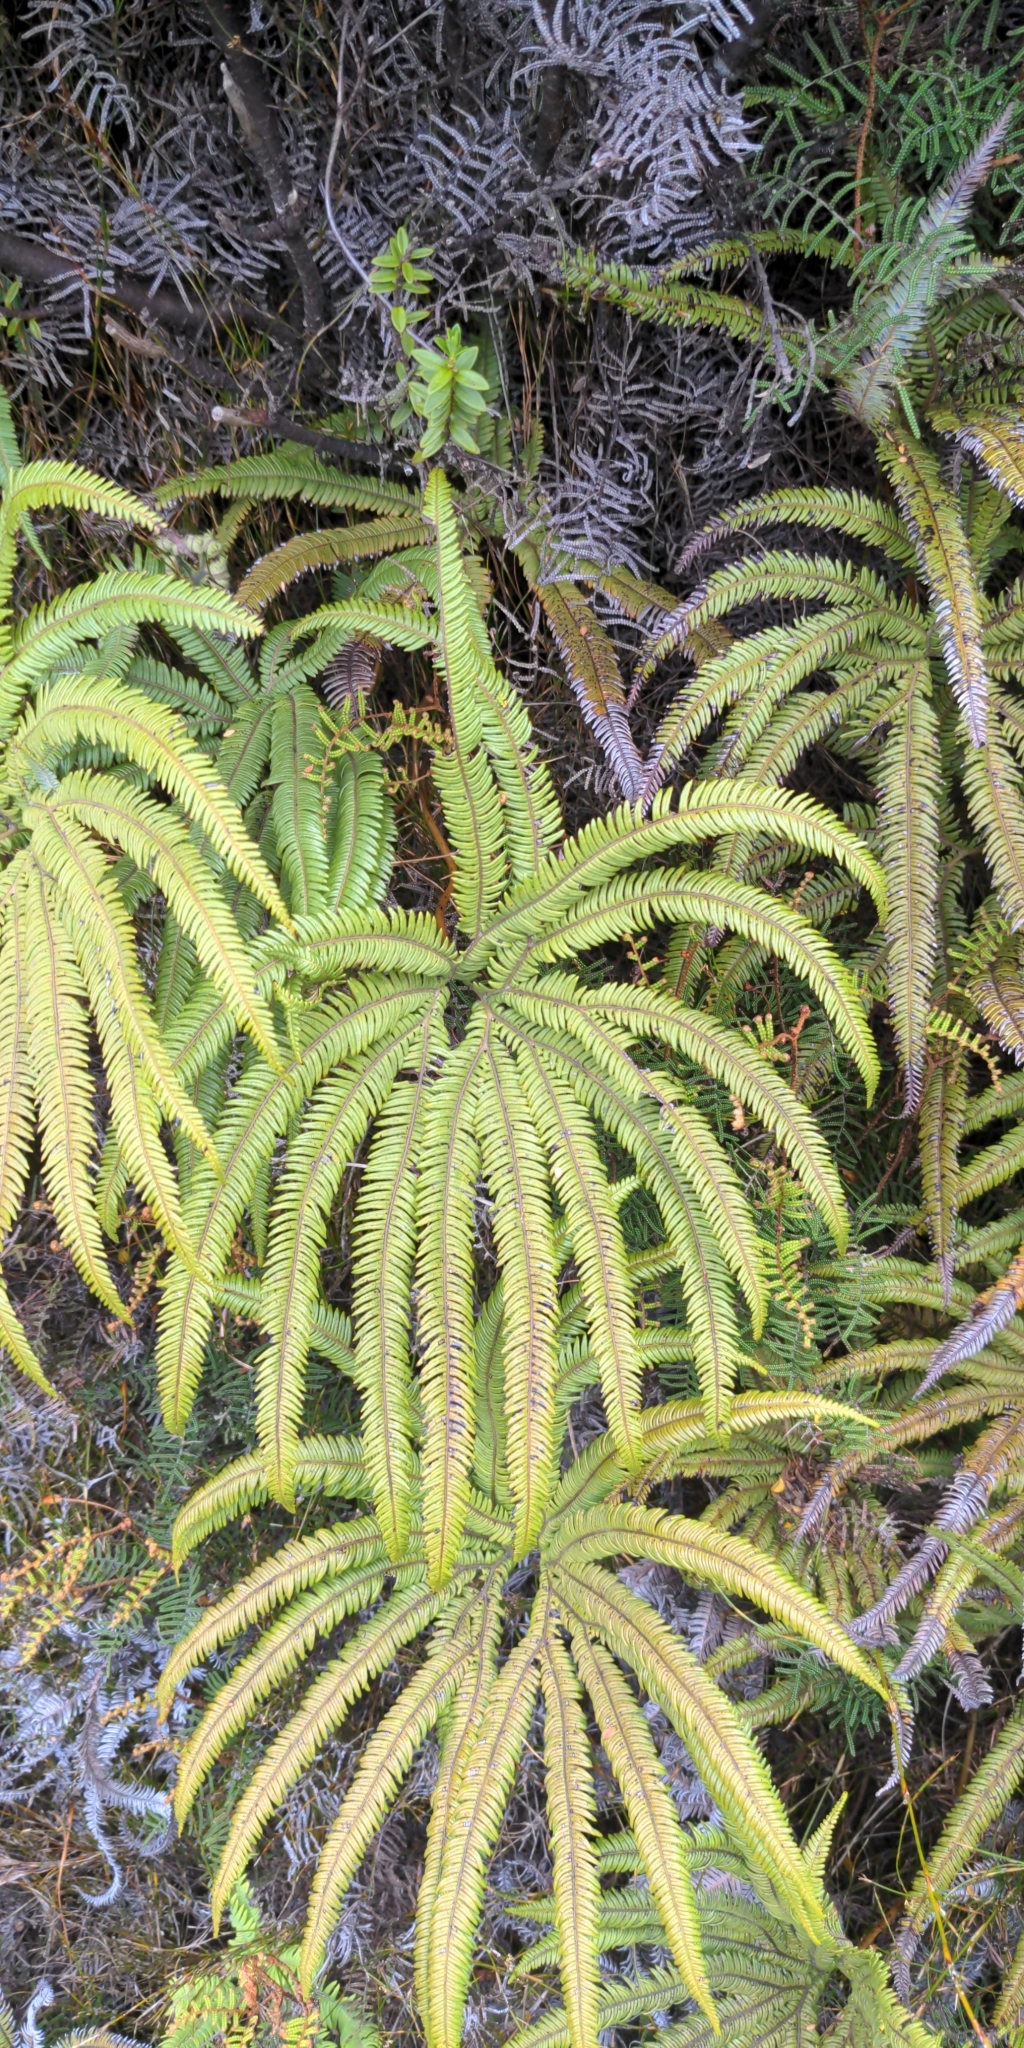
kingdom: Plantae
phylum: Tracheophyta
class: Polypodiopsida
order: Gleicheniales
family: Gleicheniaceae
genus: Sticherus
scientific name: Sticherus cunninghamii
